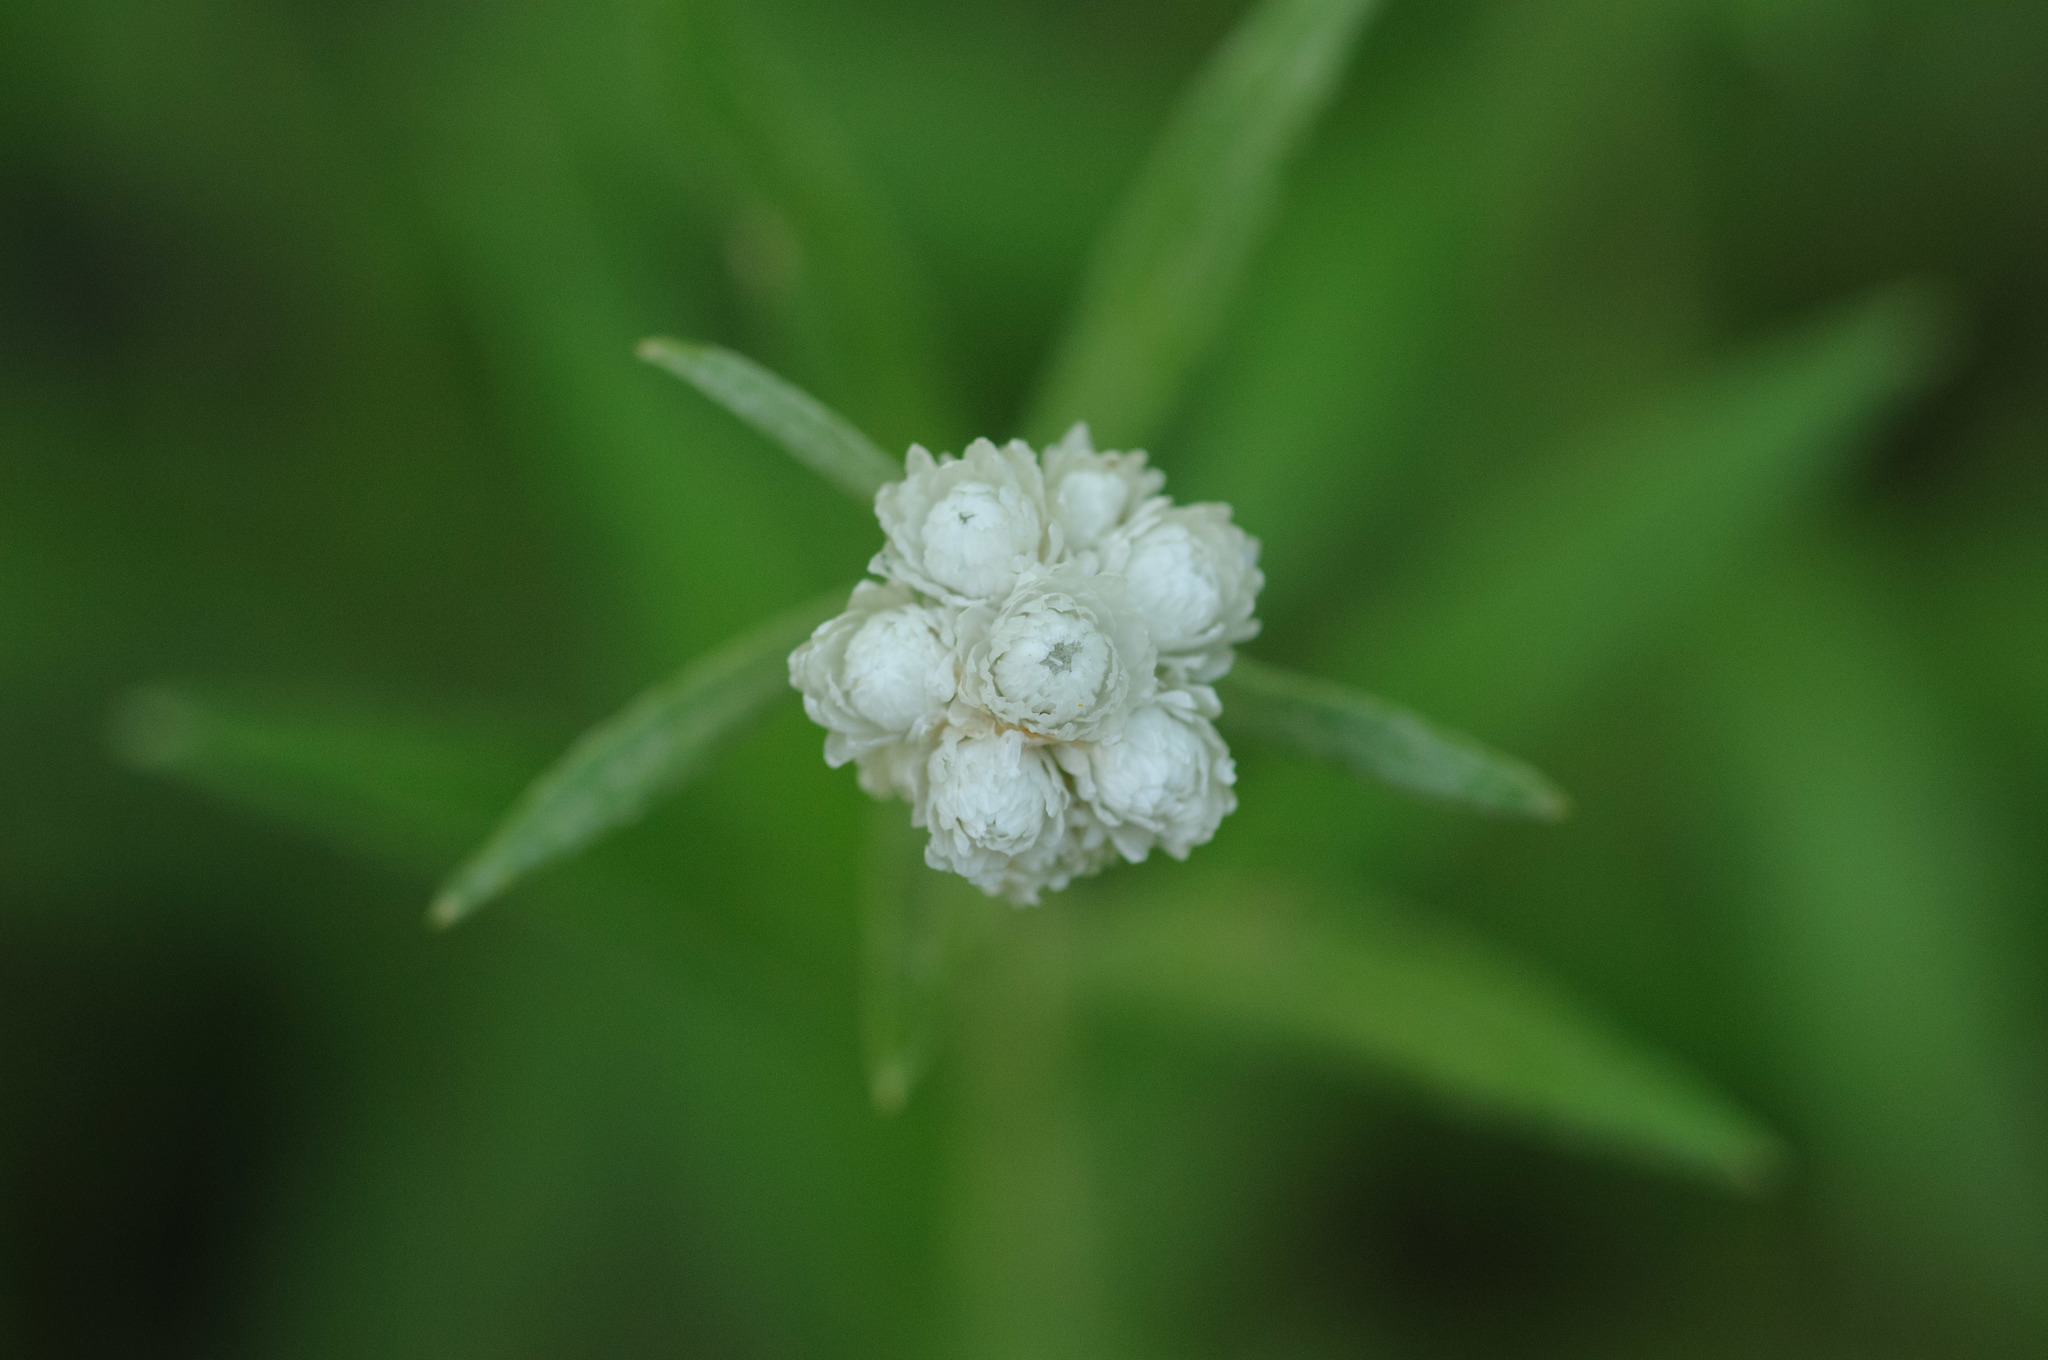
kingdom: Plantae
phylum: Tracheophyta
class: Magnoliopsida
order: Asterales
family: Asteraceae
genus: Anaphalis
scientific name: Anaphalis margaritacea
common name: Pearly everlasting
